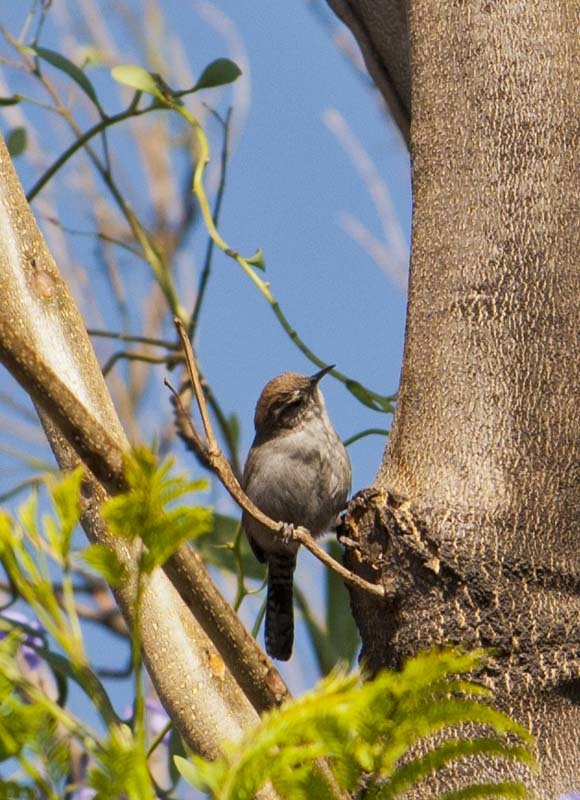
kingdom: Animalia
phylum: Chordata
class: Aves
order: Passeriformes
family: Troglodytidae
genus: Thryomanes
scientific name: Thryomanes bewickii
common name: Bewick's wren
